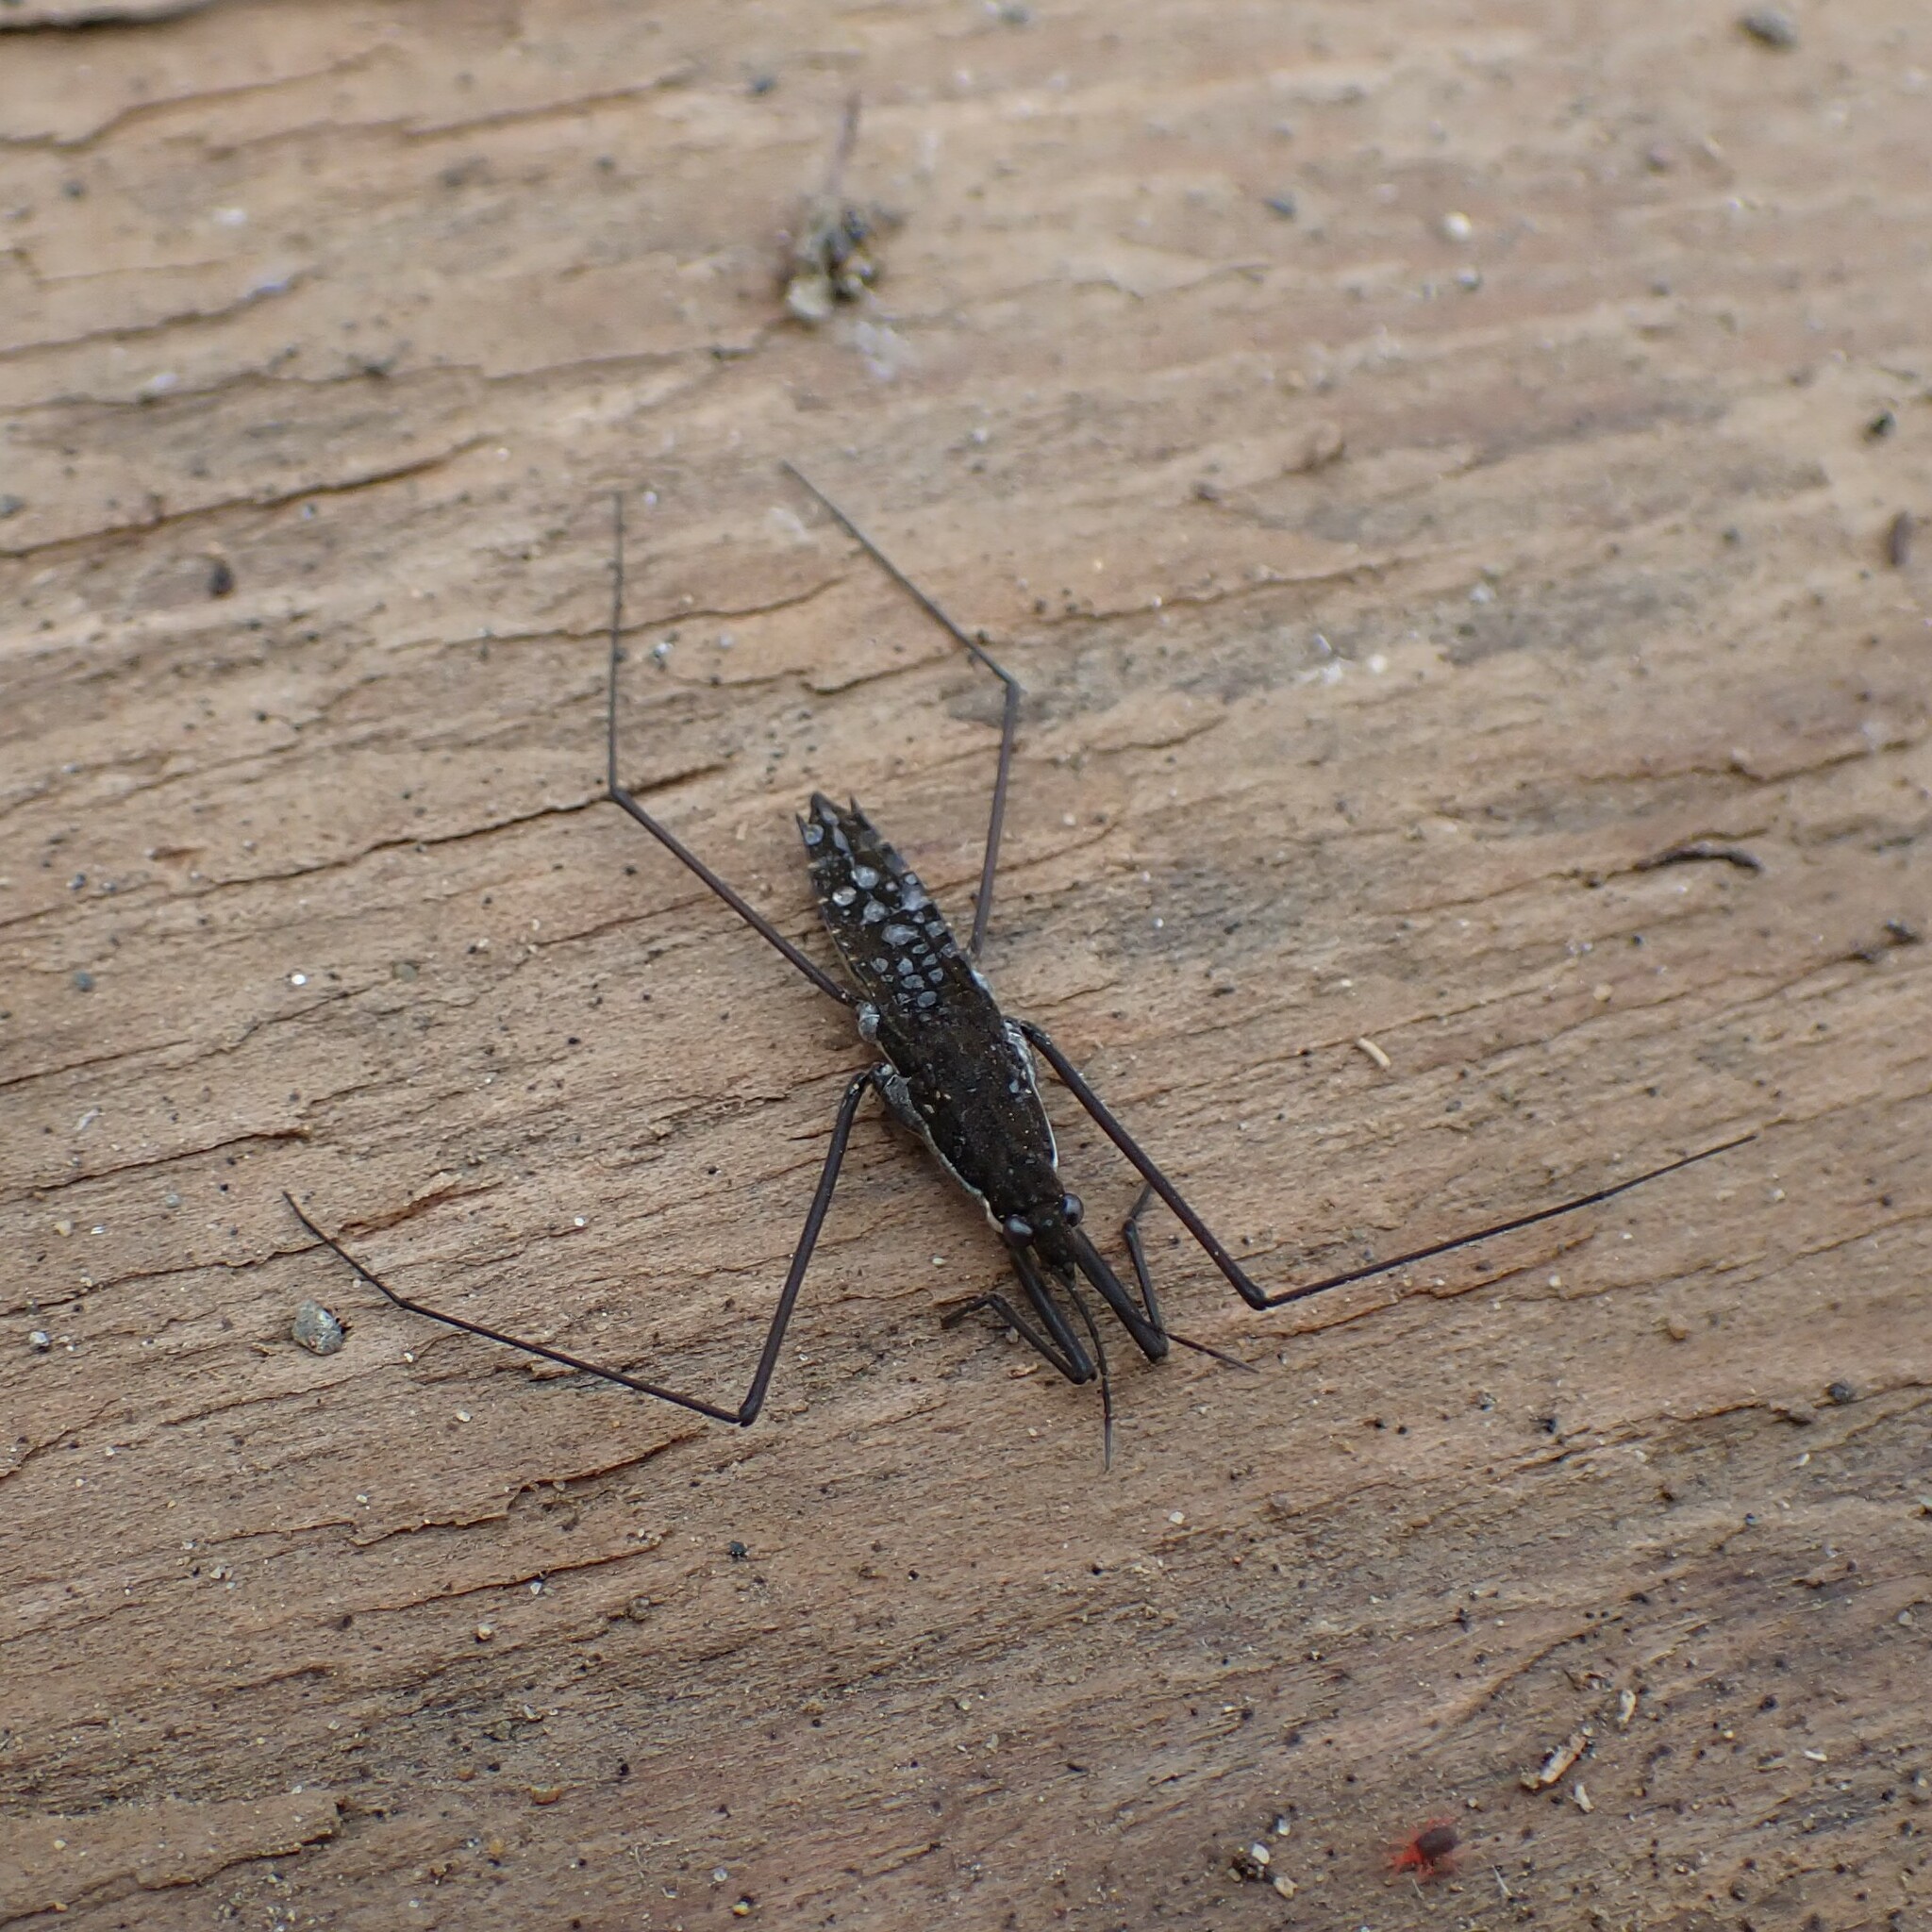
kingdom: Animalia
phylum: Arthropoda
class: Insecta
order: Hemiptera
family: Gerridae
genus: Aquarius
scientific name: Aquarius remigis
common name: Common water strider
